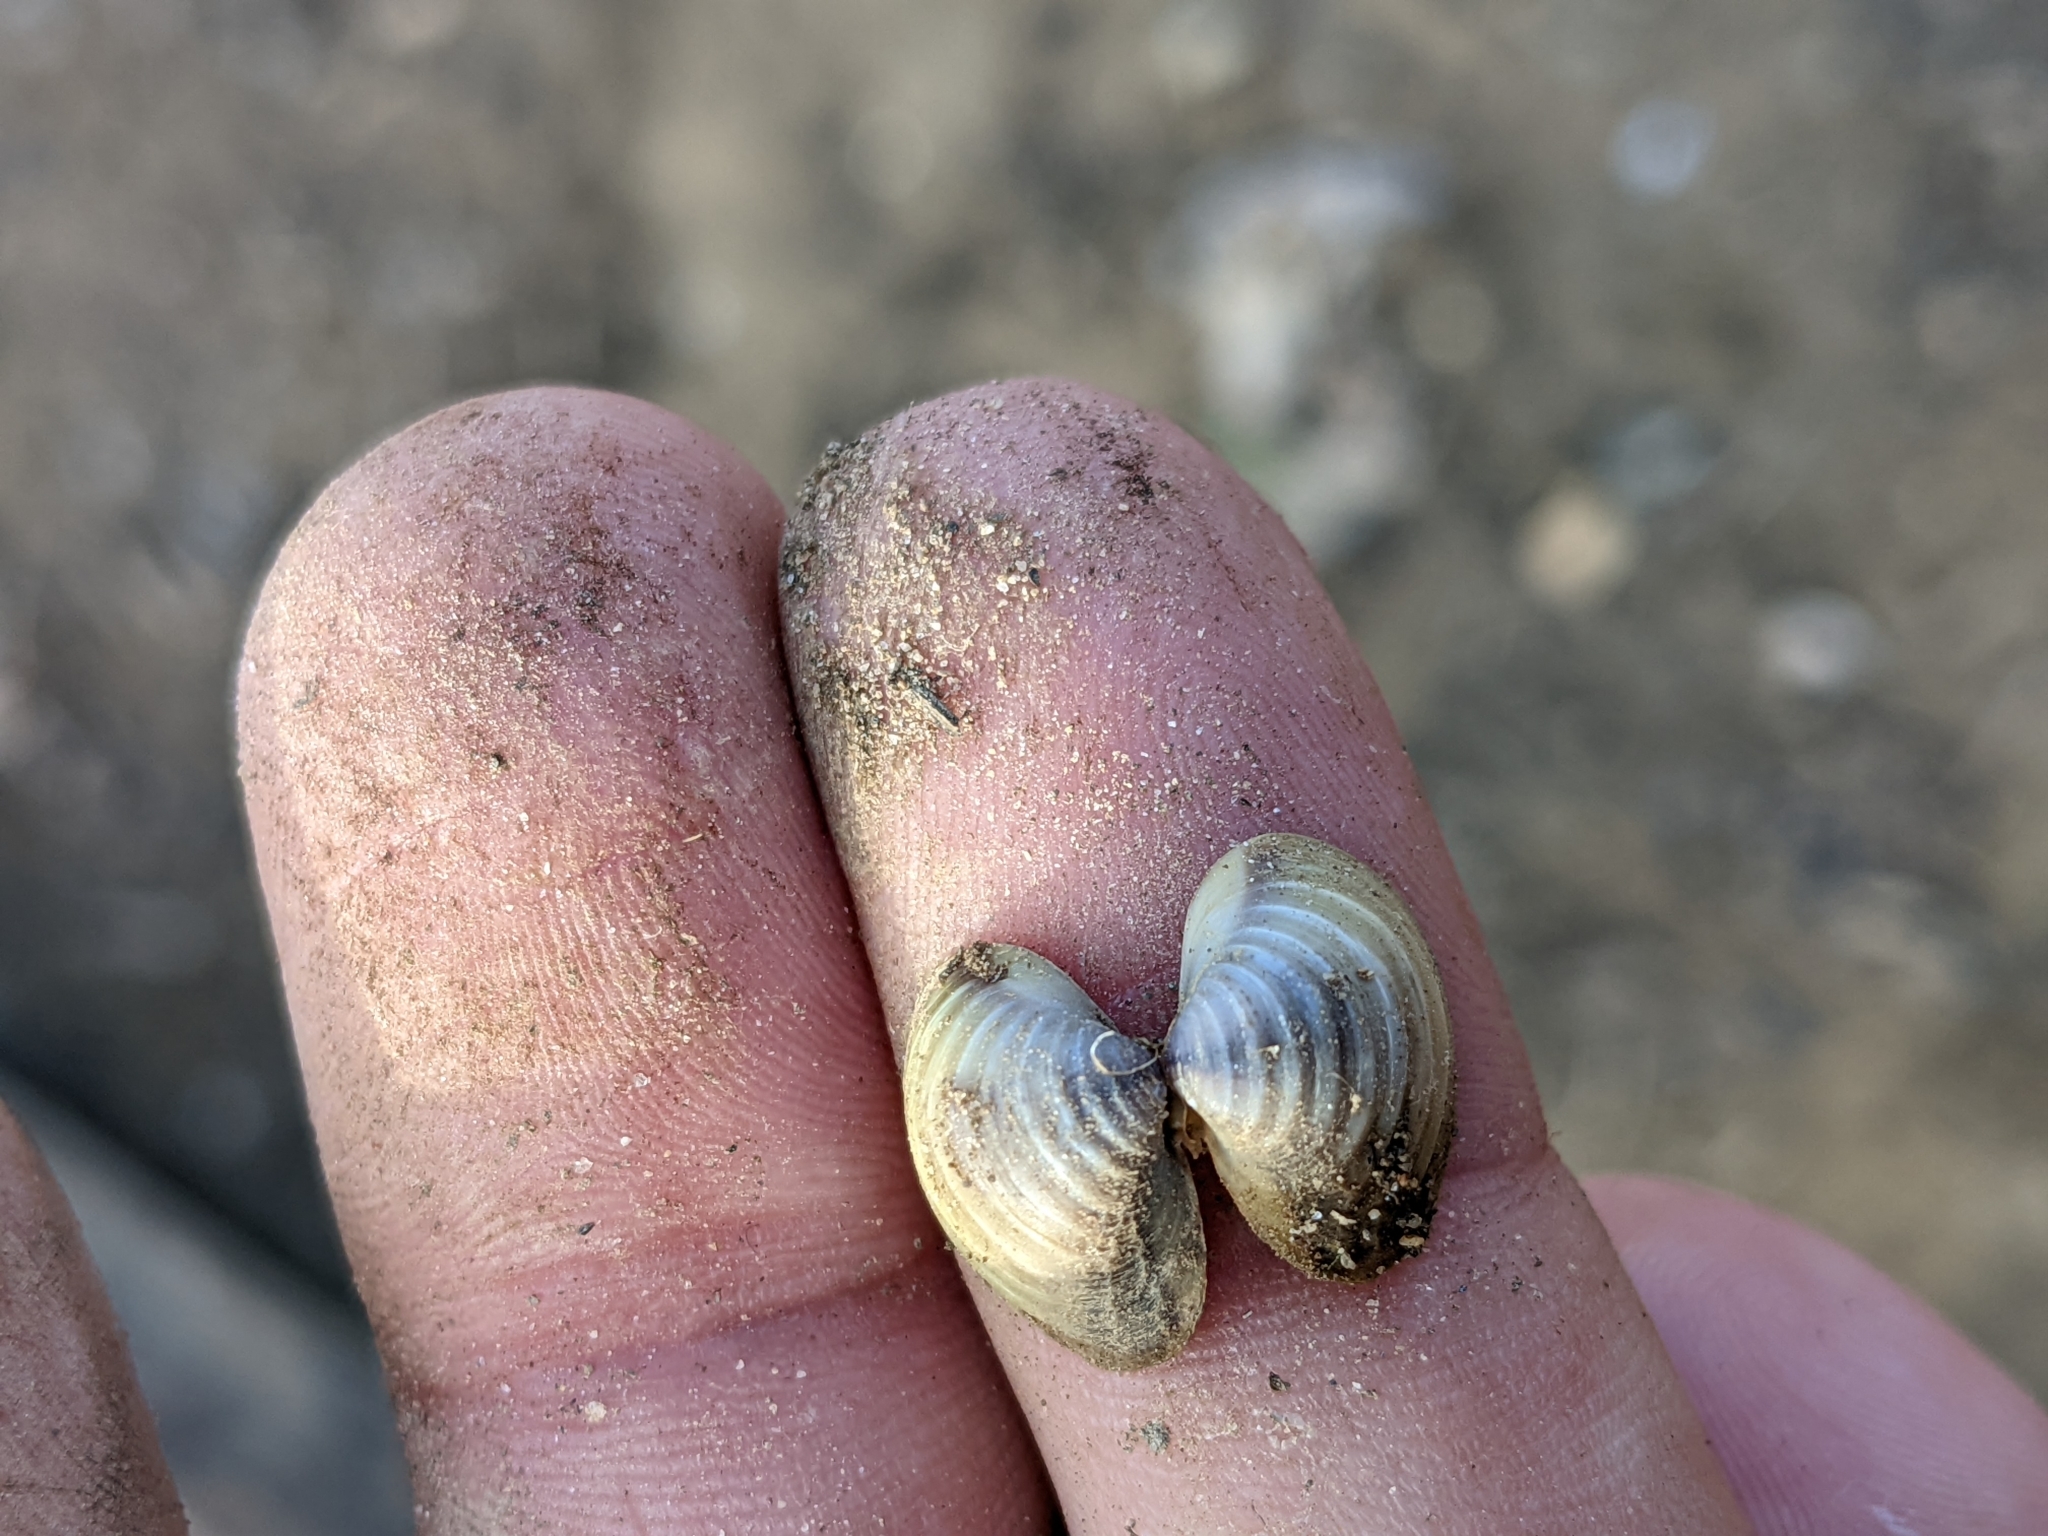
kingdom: Animalia
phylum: Mollusca
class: Bivalvia
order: Venerida
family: Cyrenidae
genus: Corbicula
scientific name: Corbicula fluminea
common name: Asian clam
